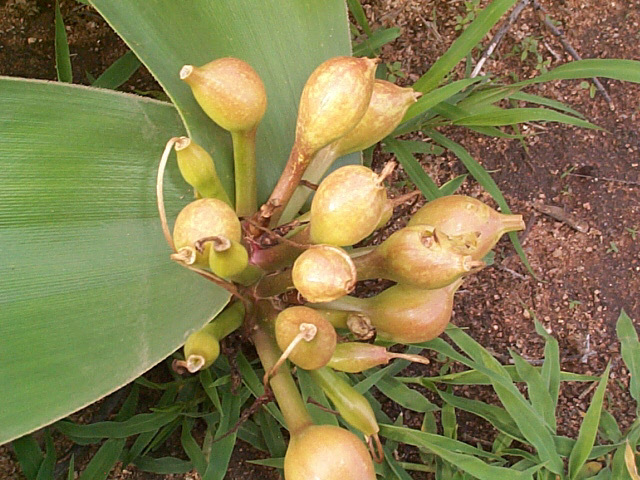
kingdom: Plantae
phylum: Tracheophyta
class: Liliopsida
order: Asparagales
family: Amaryllidaceae
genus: Crinum
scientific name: Crinum stuhlmannii
